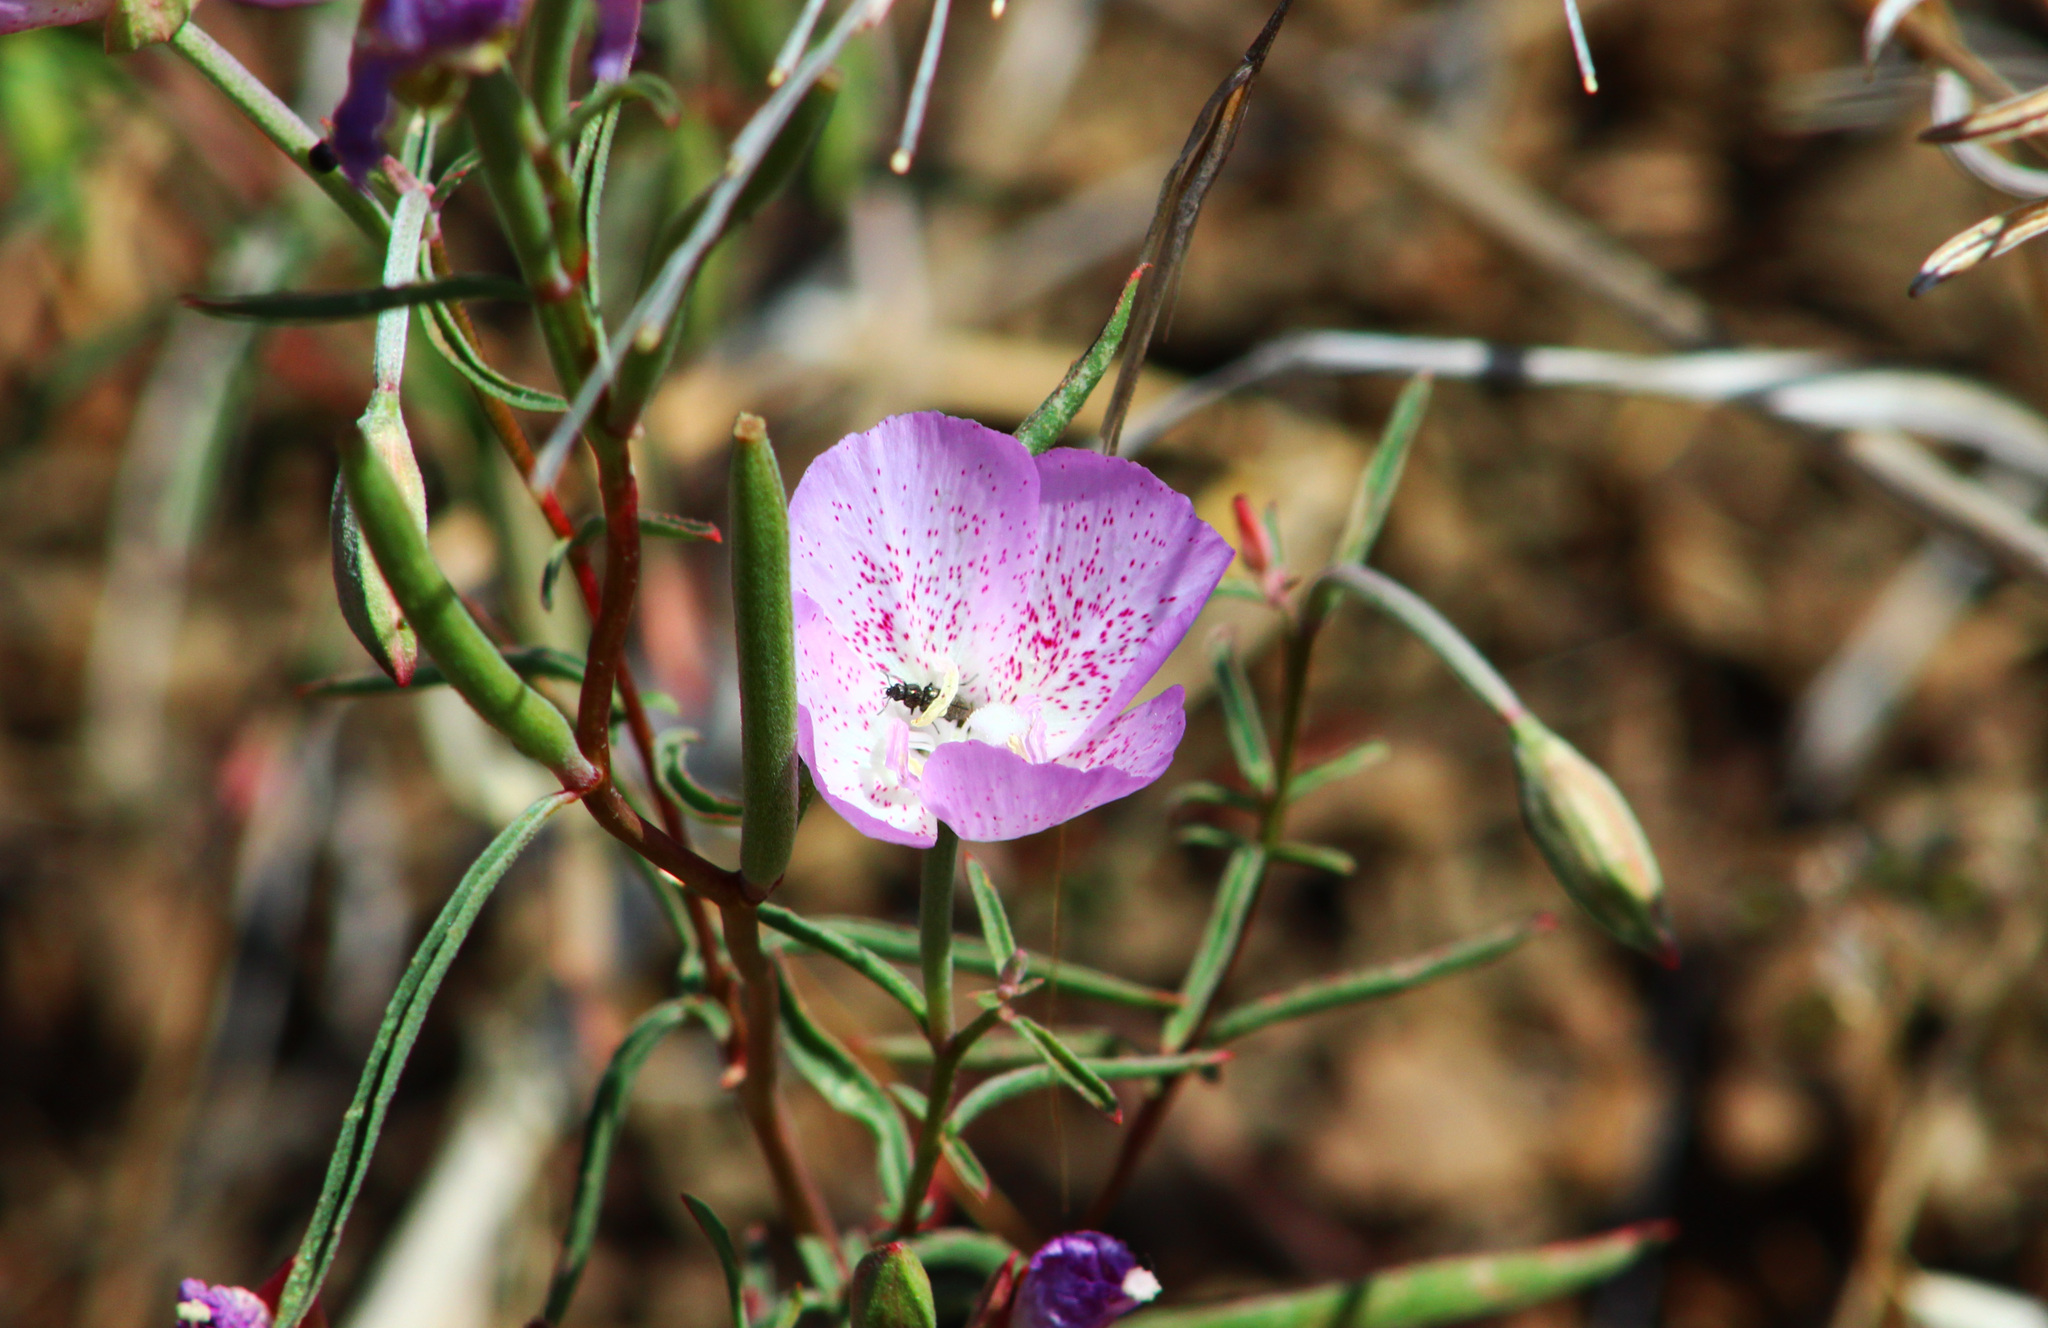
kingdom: Plantae
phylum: Tracheophyta
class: Magnoliopsida
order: Myrtales
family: Onagraceae
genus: Clarkia
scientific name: Clarkia bottae
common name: Punch-bowl godetia
